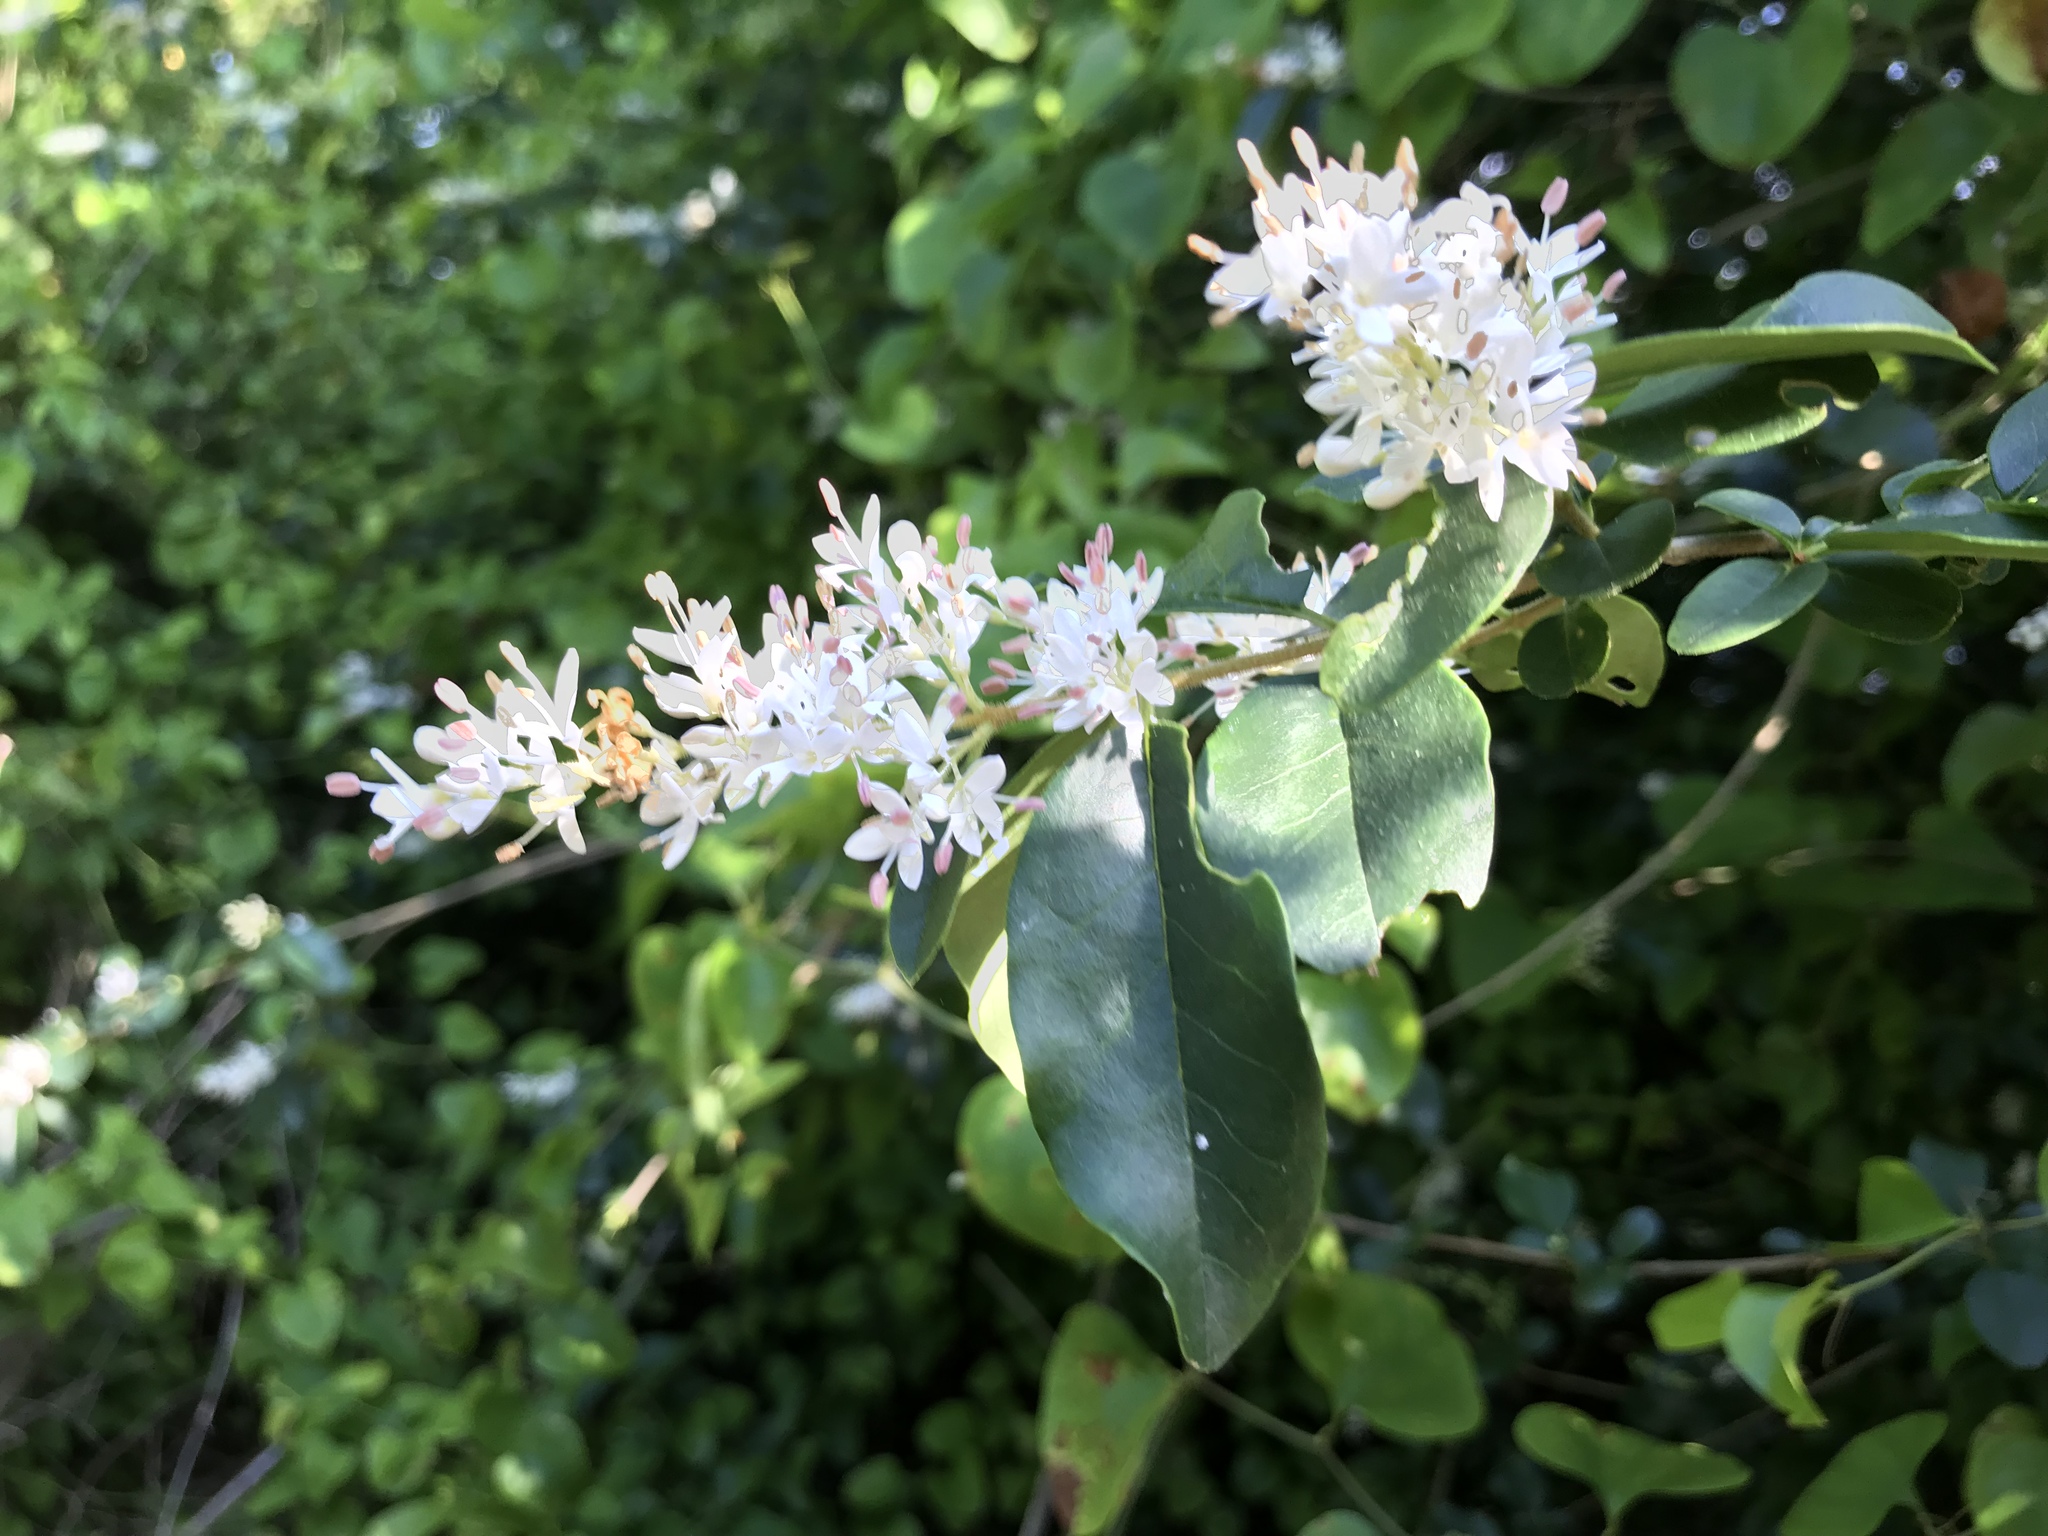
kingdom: Plantae
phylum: Tracheophyta
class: Magnoliopsida
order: Lamiales
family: Oleaceae
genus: Ligustrum
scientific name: Ligustrum sinense
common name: Chinese privet
